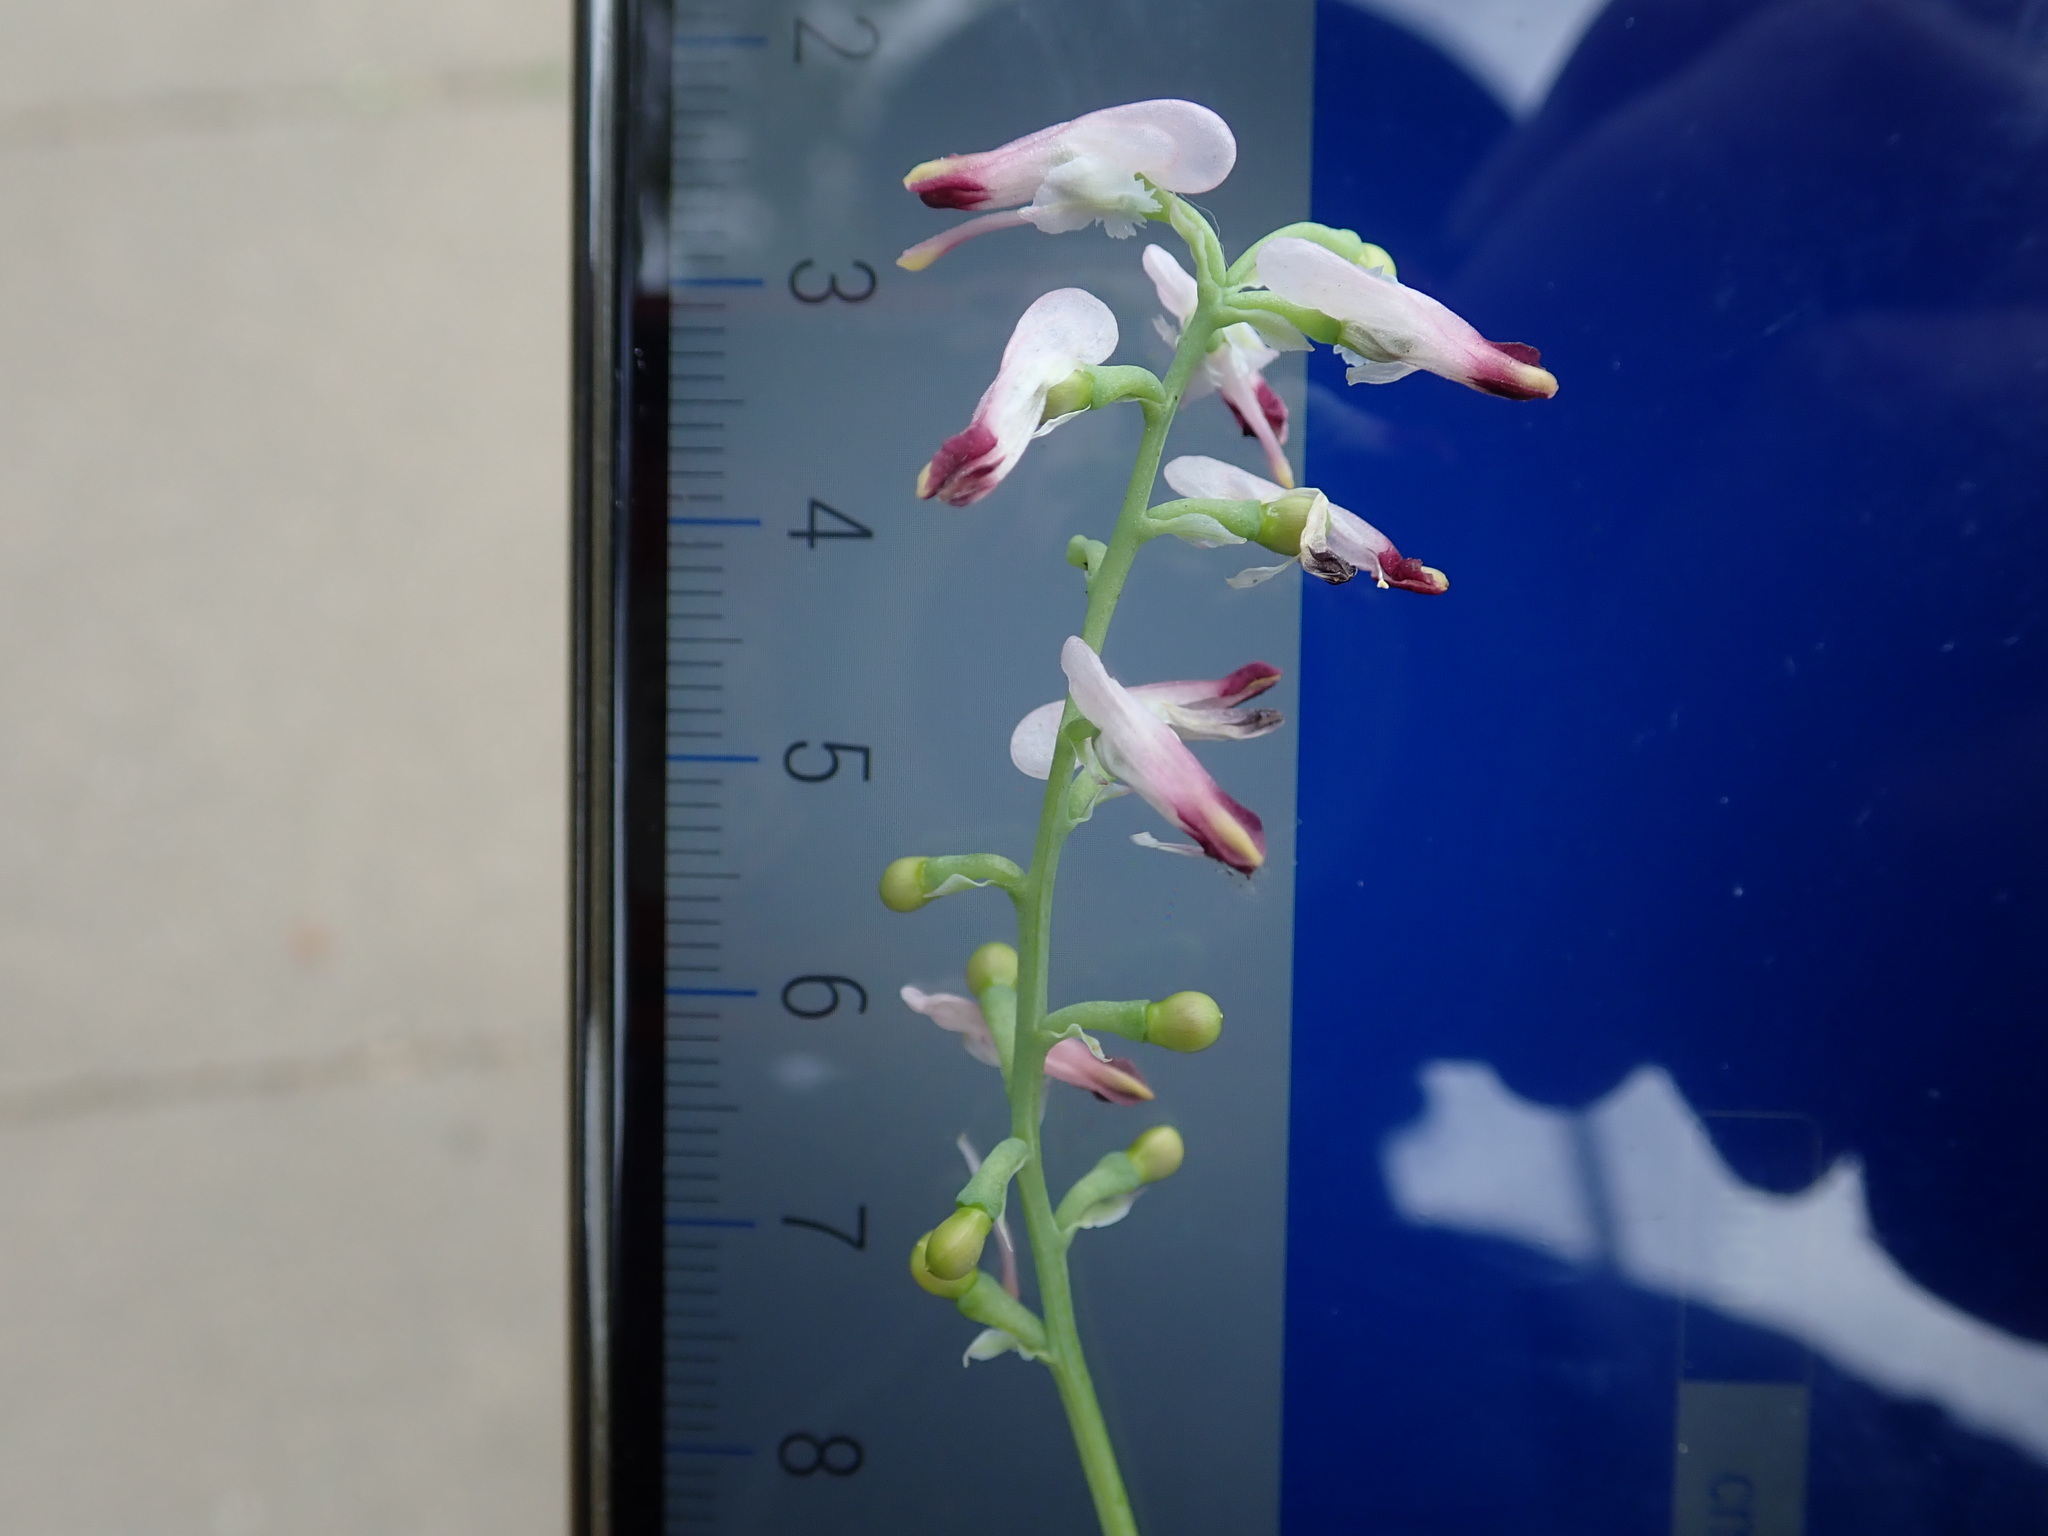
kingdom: Plantae
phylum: Tracheophyta
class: Magnoliopsida
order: Ranunculales
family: Papaveraceae
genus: Fumaria
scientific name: Fumaria muralis
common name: Common ramping-fumitory
